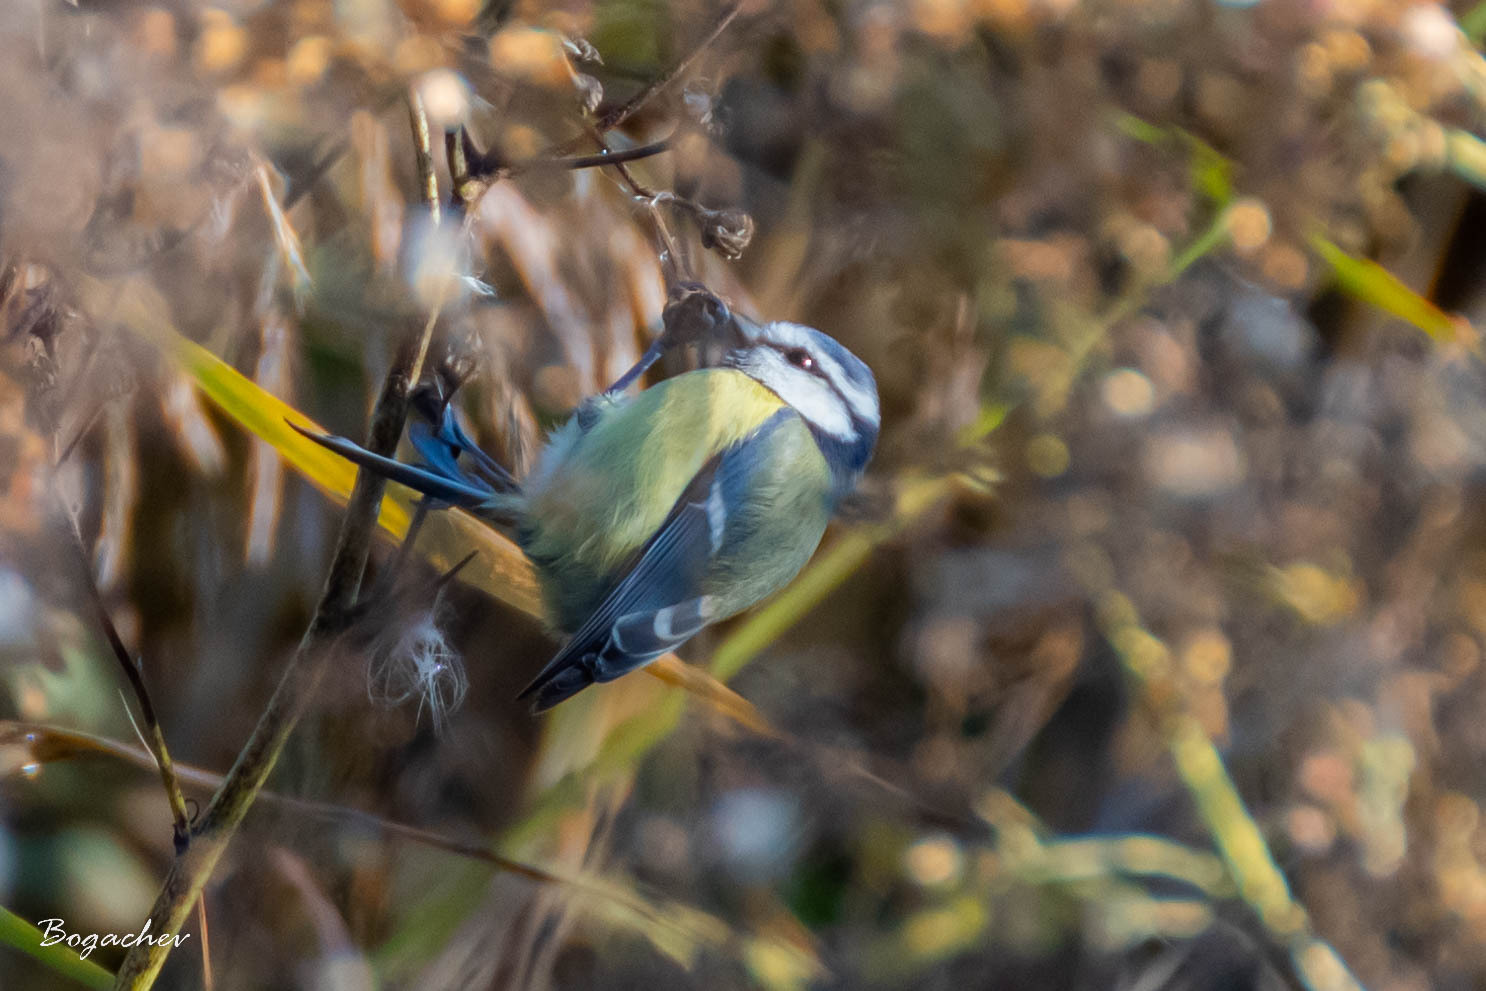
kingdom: Animalia
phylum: Chordata
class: Aves
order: Passeriformes
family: Paridae
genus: Cyanistes
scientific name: Cyanistes caeruleus
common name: Eurasian blue tit
